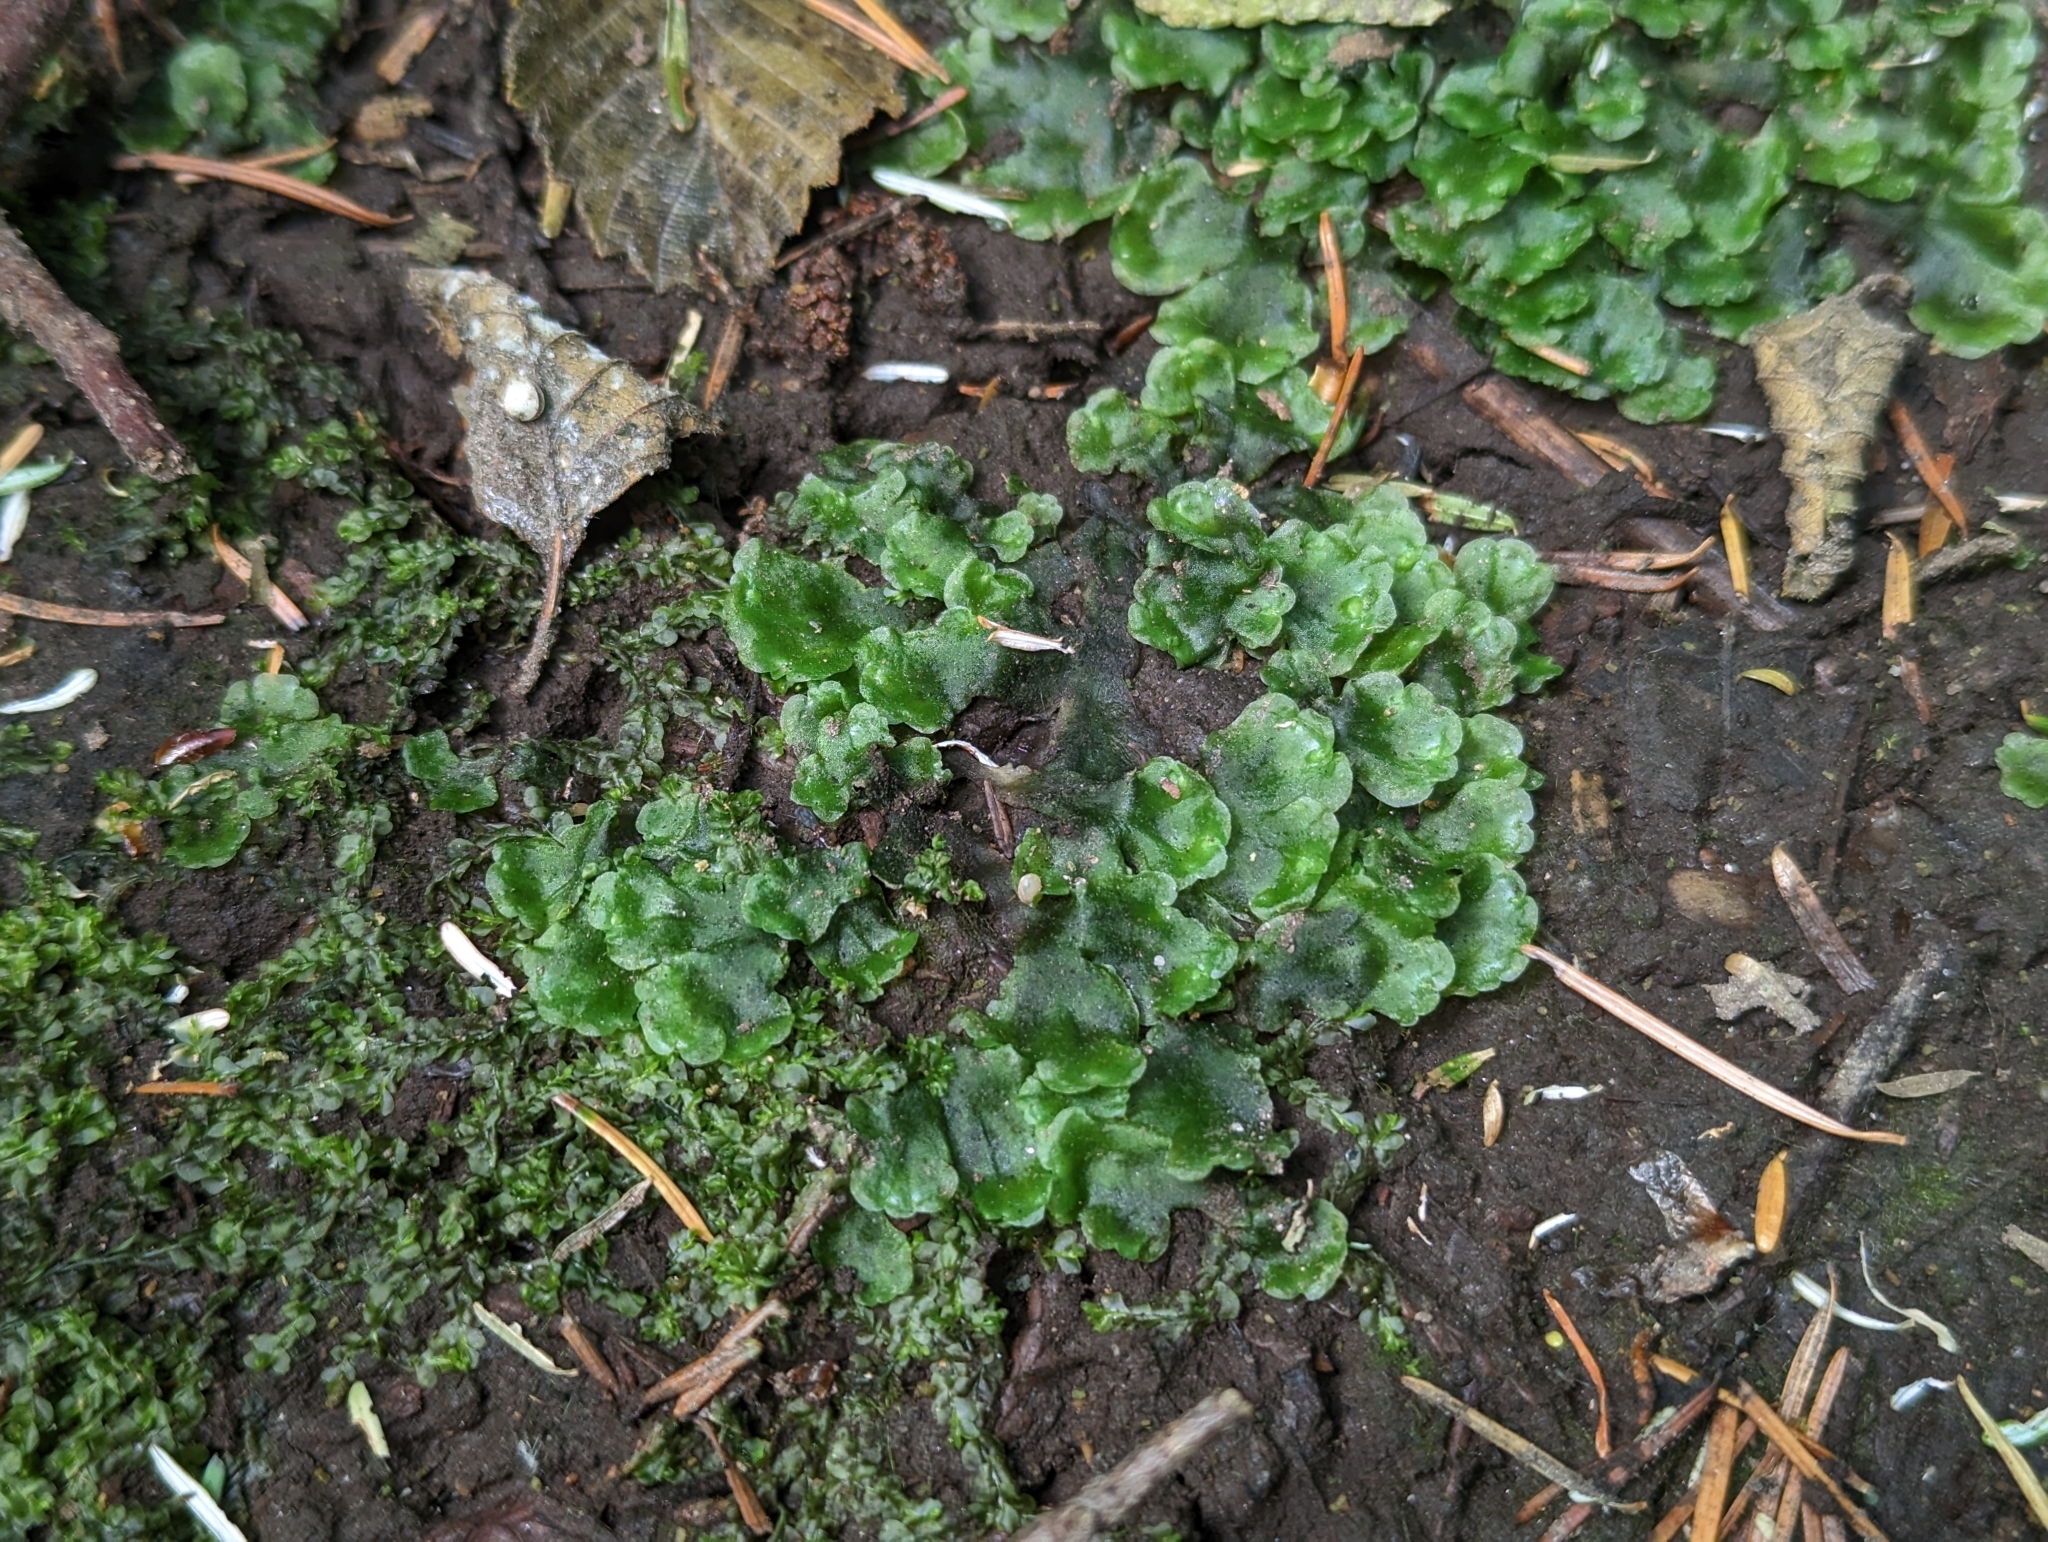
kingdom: Plantae
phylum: Marchantiophyta
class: Jungermanniopsida
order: Pelliales
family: Pelliaceae
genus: Pellia
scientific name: Pellia neesiana
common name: Nees  pellia
